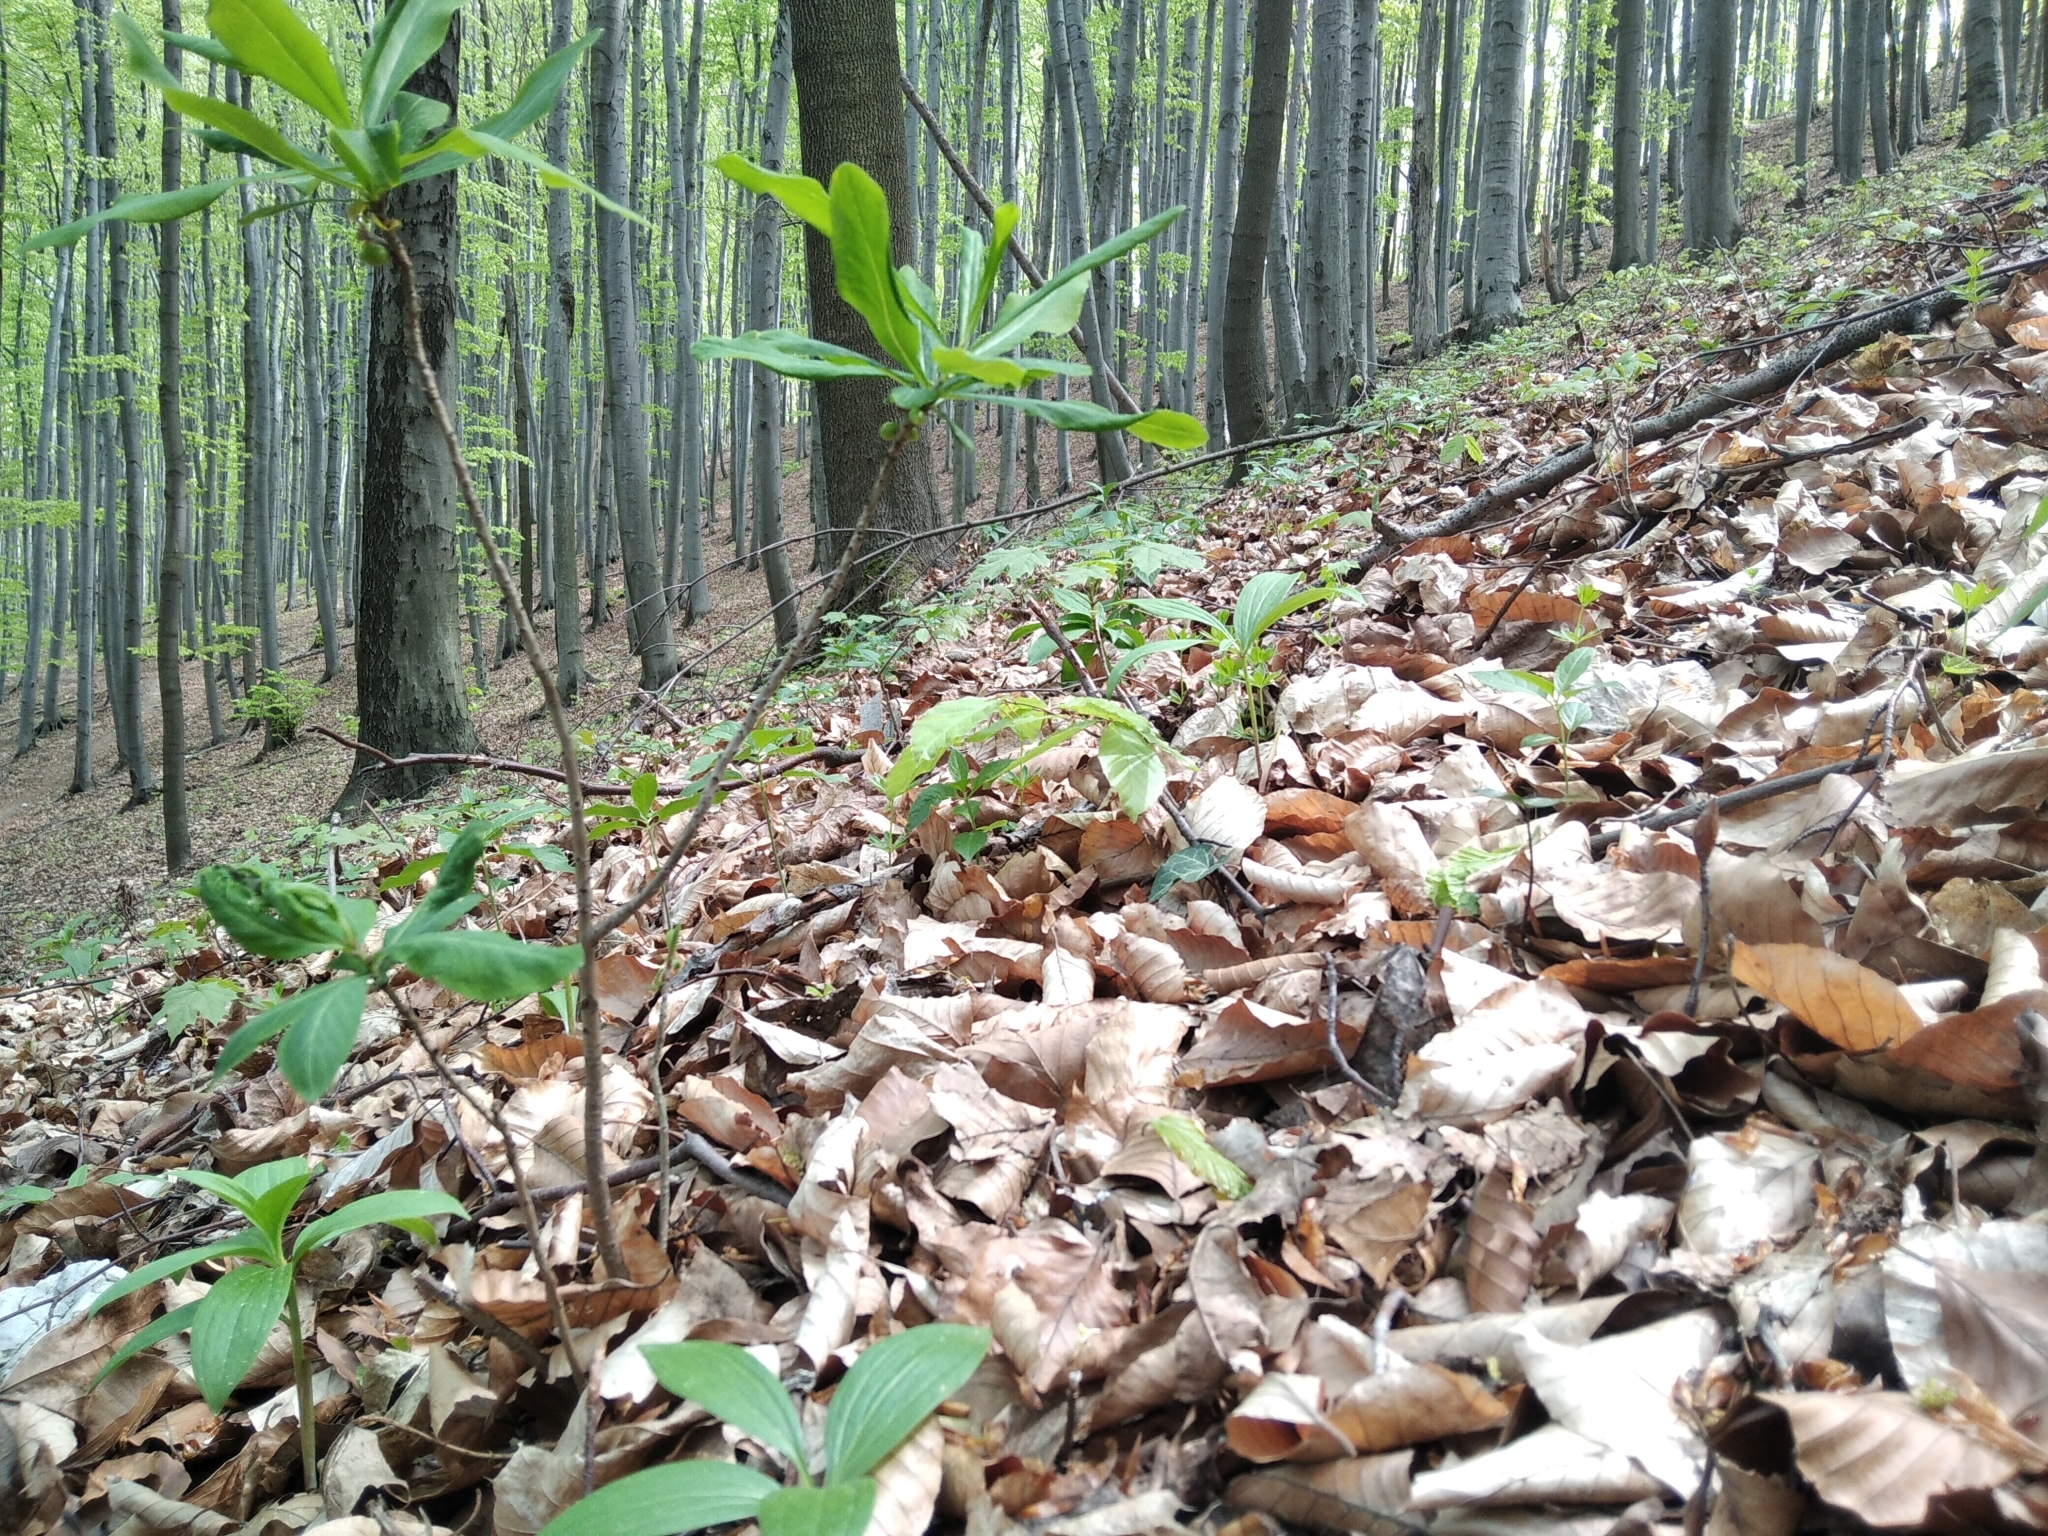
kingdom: Plantae
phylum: Tracheophyta
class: Magnoliopsida
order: Malvales
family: Thymelaeaceae
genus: Daphne
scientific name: Daphne mezereum
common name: Mezereon
